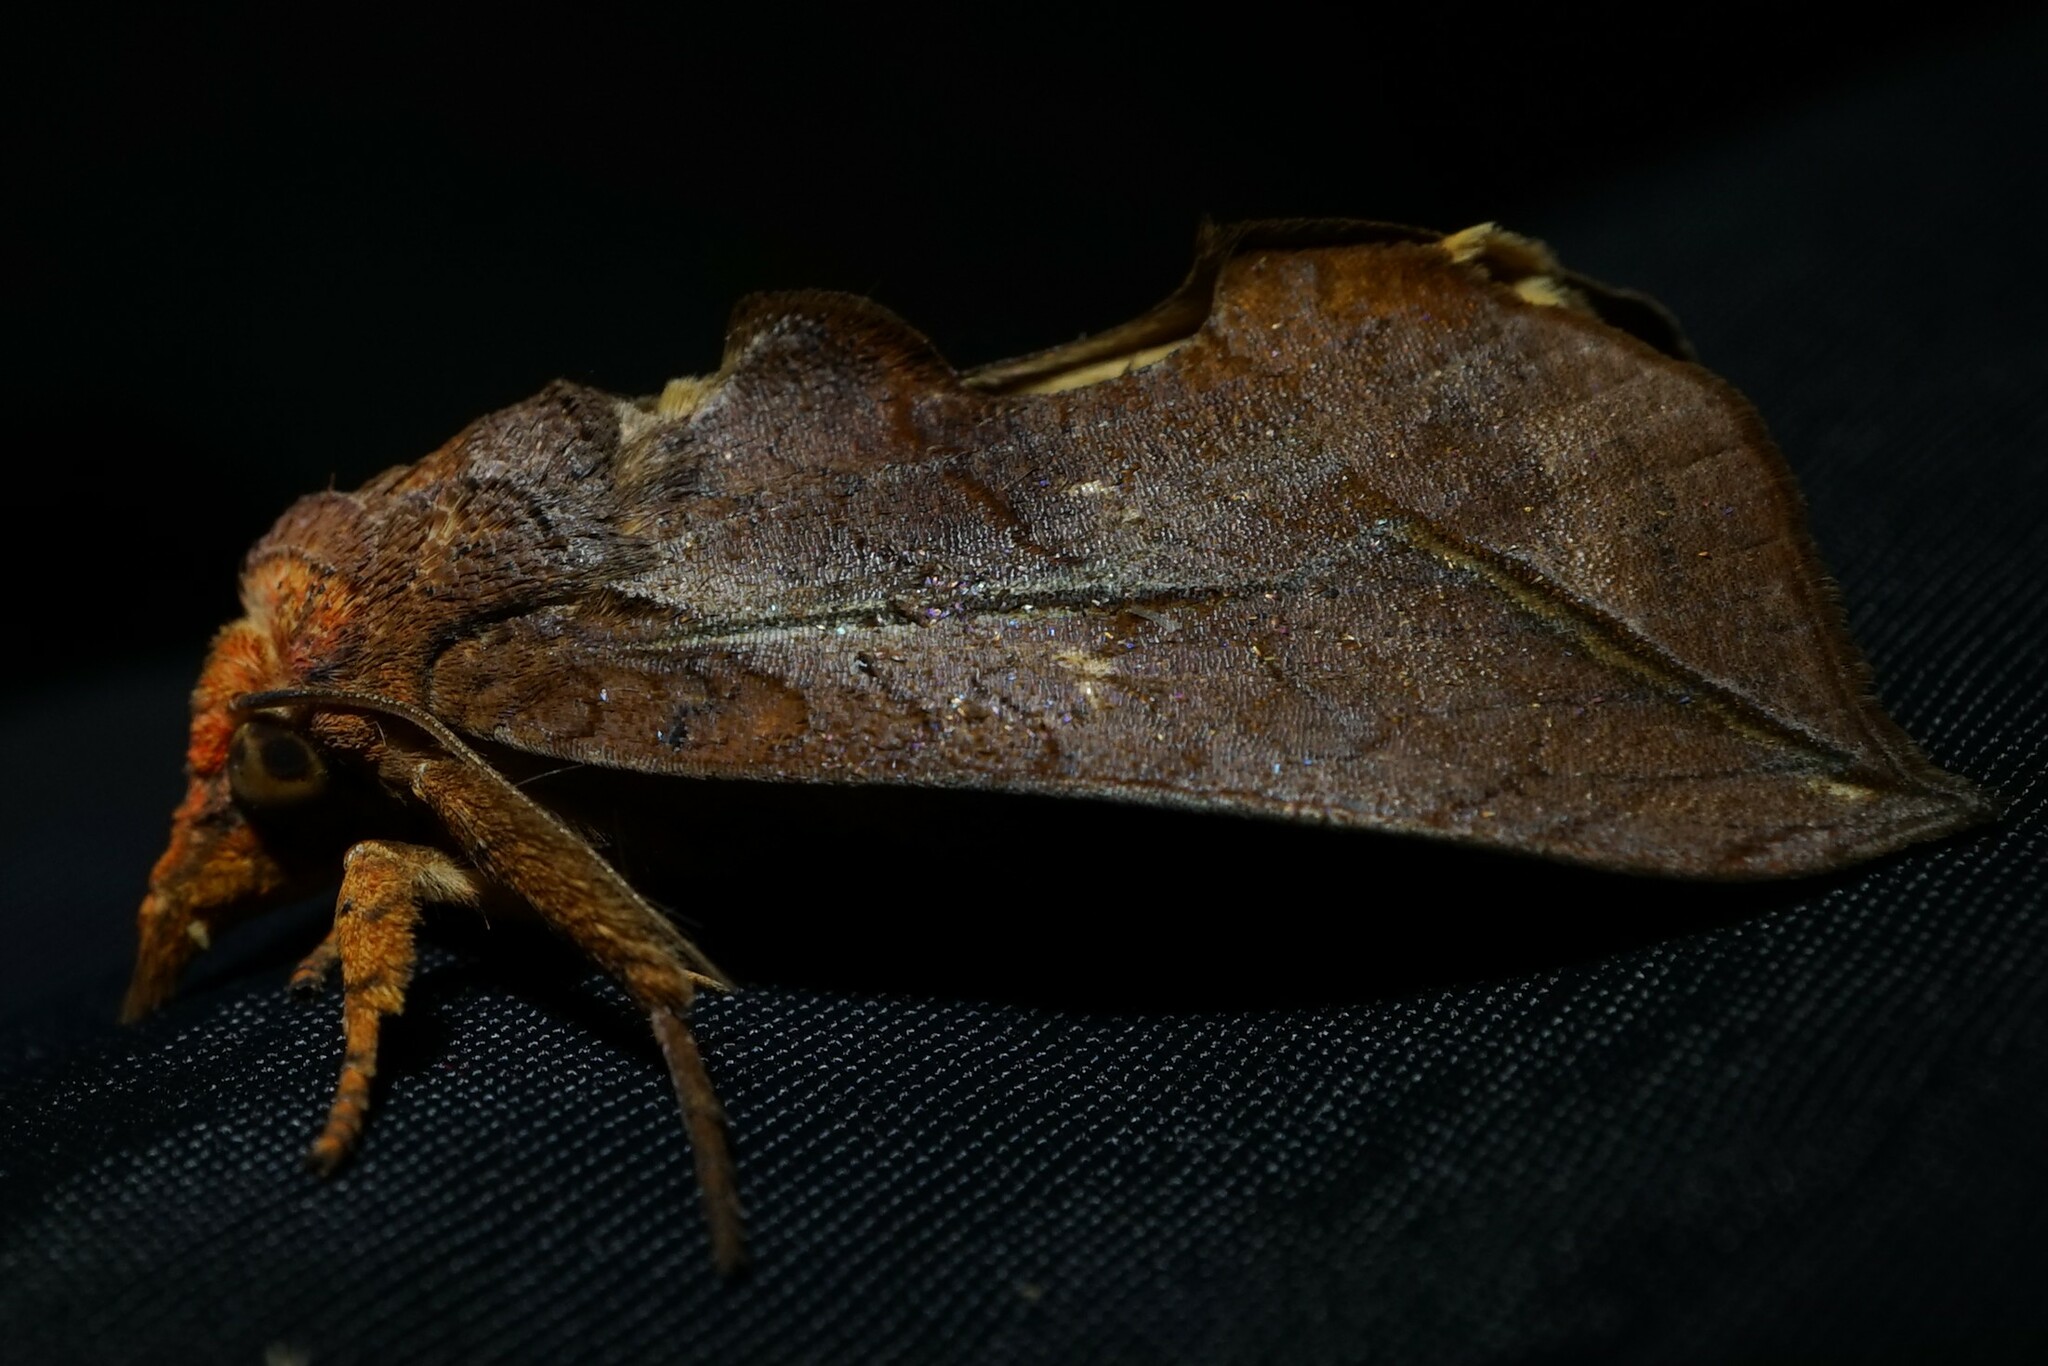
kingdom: Animalia
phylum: Arthropoda
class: Insecta
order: Lepidoptera
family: Erebidae
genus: Oraesia
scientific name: Oraesia excavata
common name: Moth
